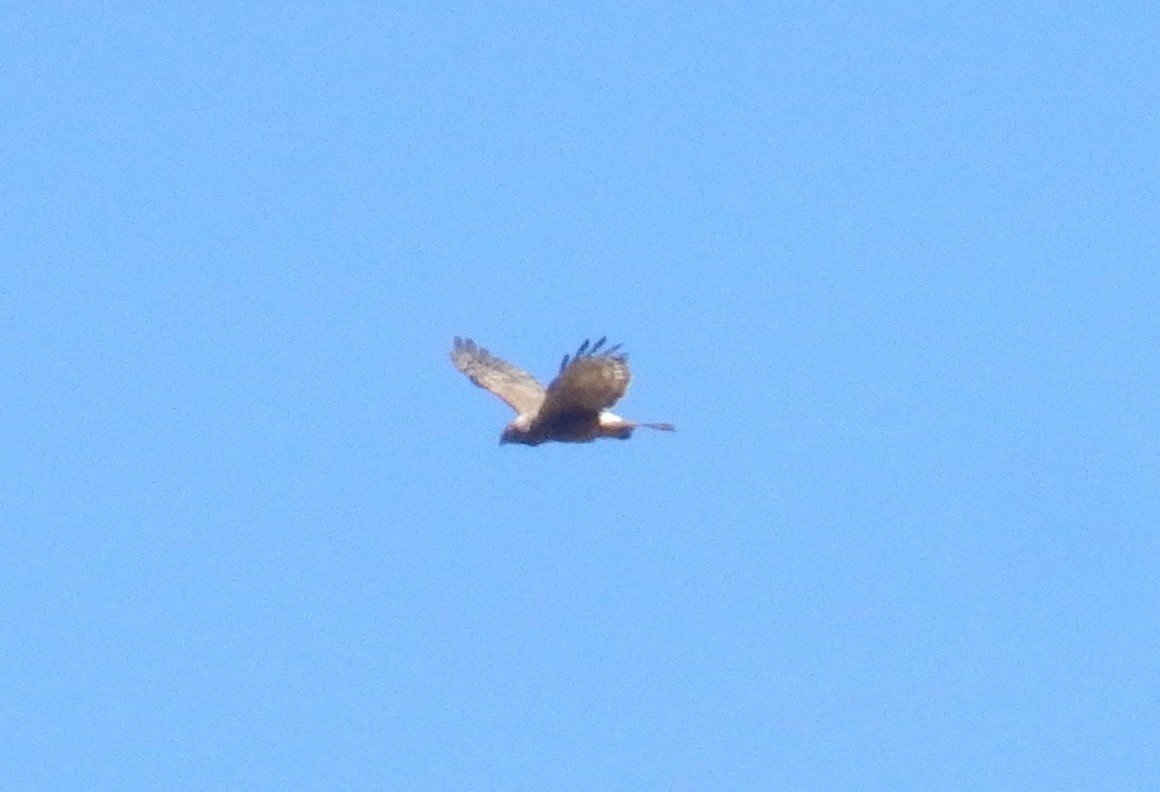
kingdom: Animalia
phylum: Chordata
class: Aves
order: Accipitriformes
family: Accipitridae
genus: Circus
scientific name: Circus maillardi
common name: Reunion harrier
